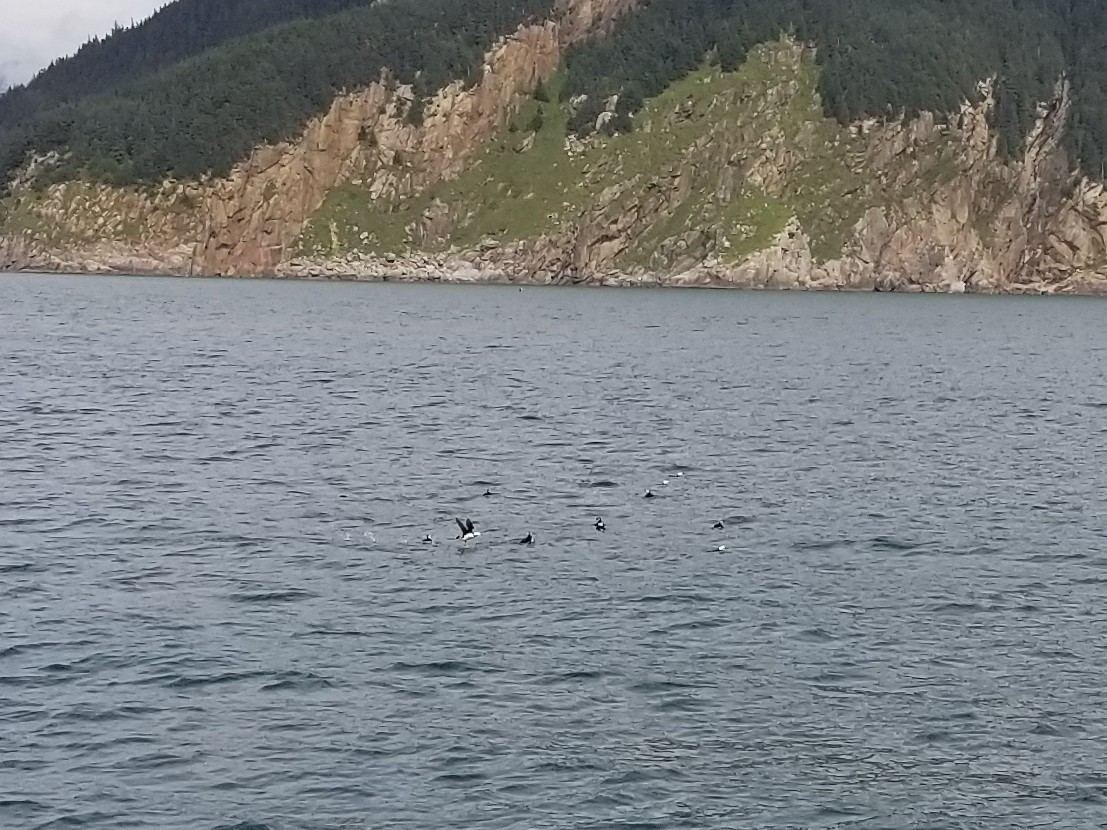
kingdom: Animalia
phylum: Chordata
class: Aves
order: Charadriiformes
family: Alcidae
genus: Fratercula
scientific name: Fratercula corniculata
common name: Horned puffin
